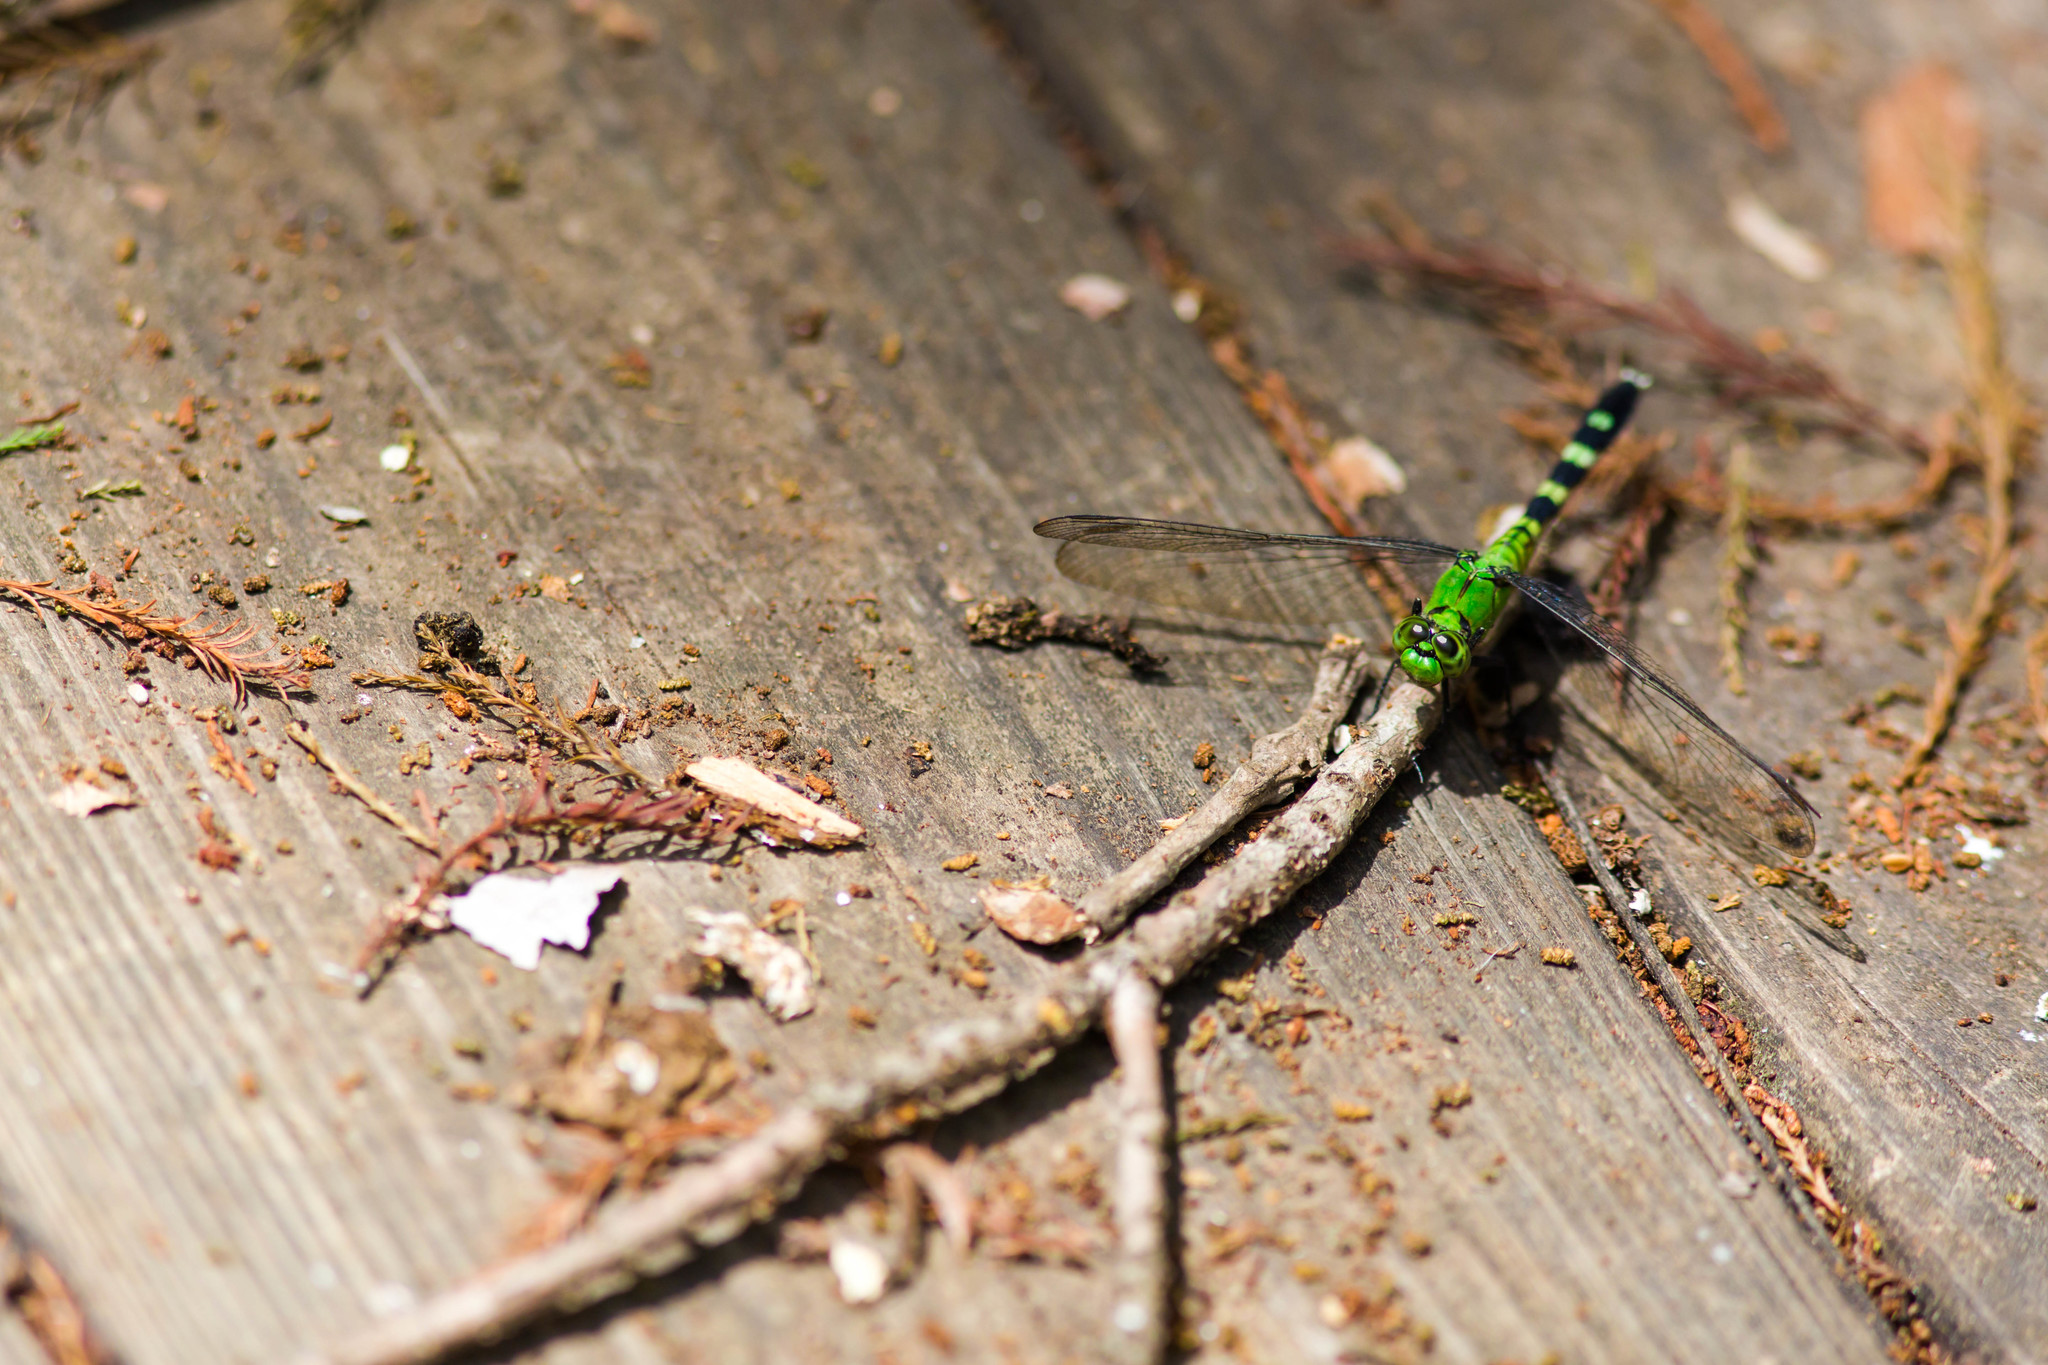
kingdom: Animalia
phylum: Arthropoda
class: Insecta
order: Odonata
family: Libellulidae
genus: Erythemis
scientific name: Erythemis simplicicollis
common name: Eastern pondhawk
